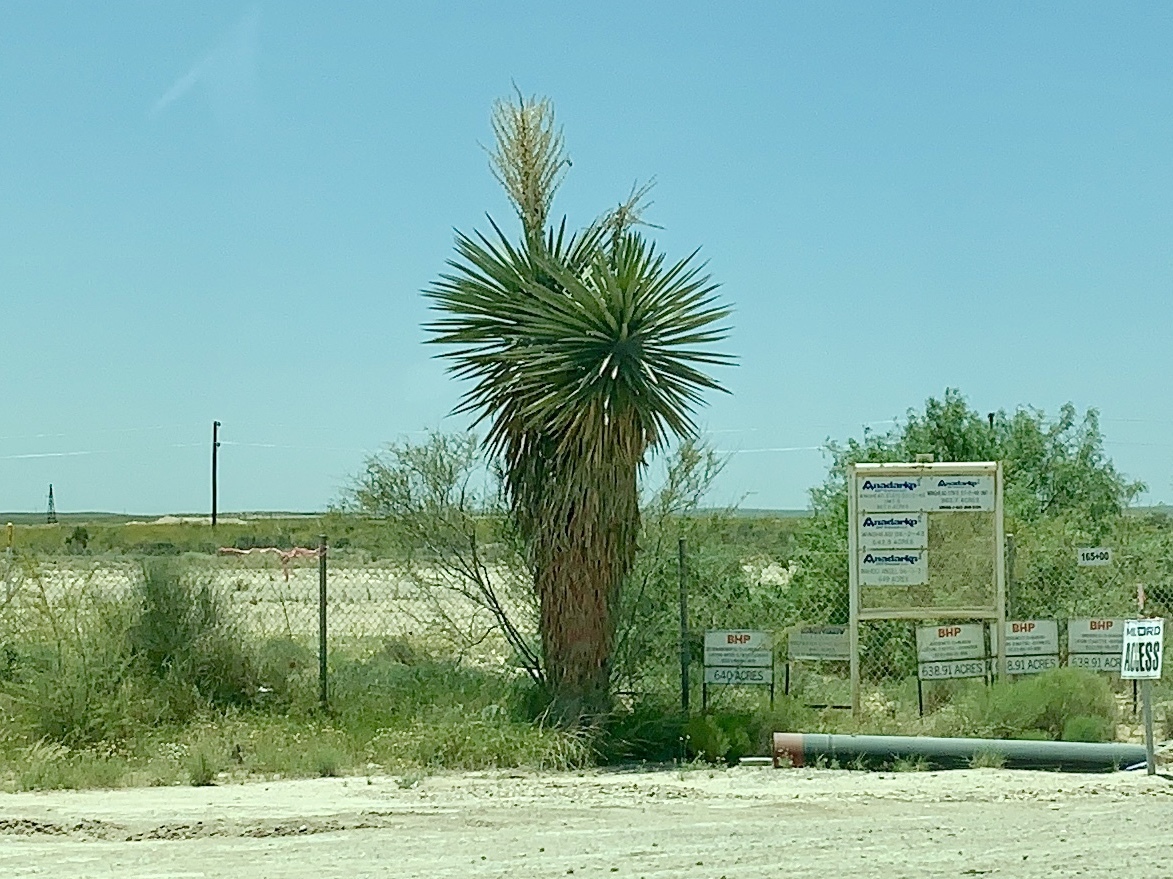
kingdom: Plantae
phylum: Tracheophyta
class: Liliopsida
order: Asparagales
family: Asparagaceae
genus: Yucca
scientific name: Yucca faxoniana
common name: Spanish dagger
